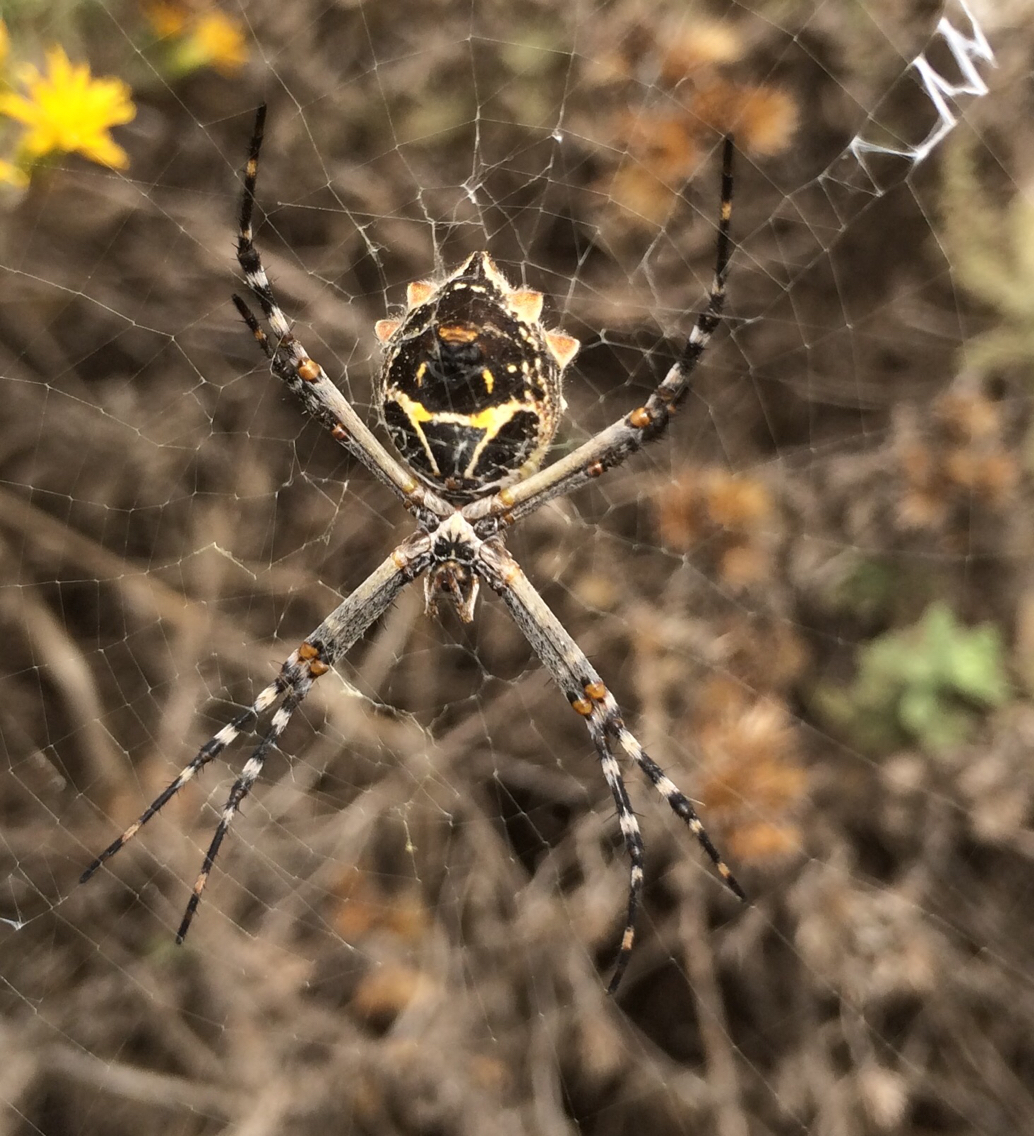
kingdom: Animalia
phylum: Arthropoda
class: Arachnida
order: Araneae
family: Araneidae
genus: Argiope
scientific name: Argiope argentata
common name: Orb weavers
